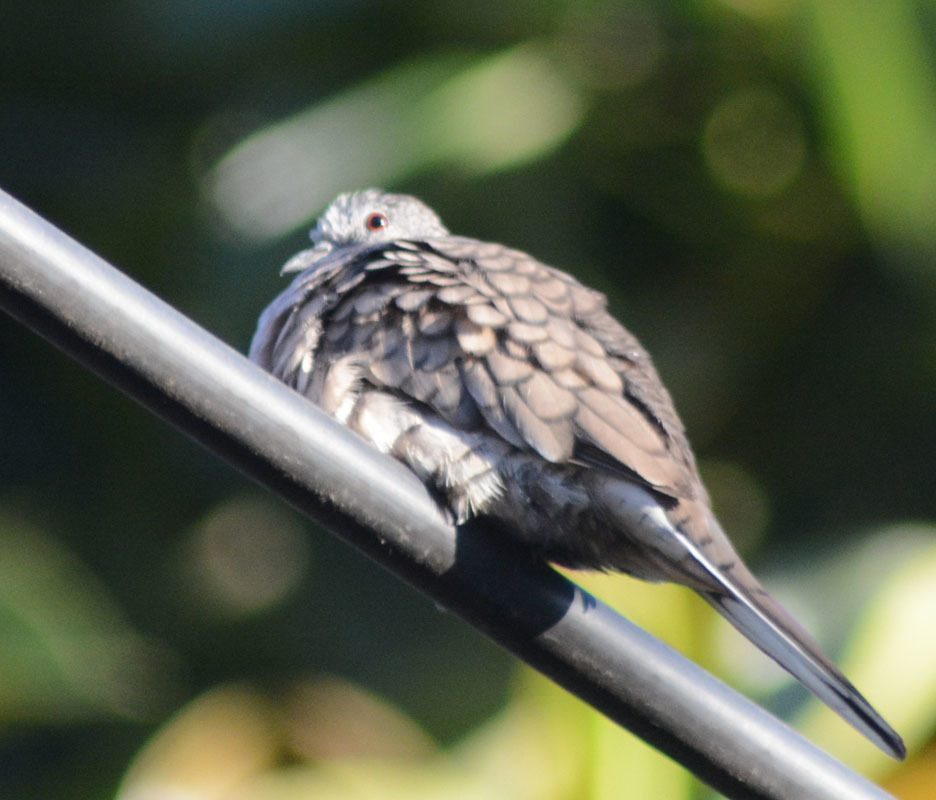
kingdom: Animalia
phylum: Chordata
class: Aves
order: Columbiformes
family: Columbidae
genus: Columbina
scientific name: Columbina inca
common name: Inca dove
